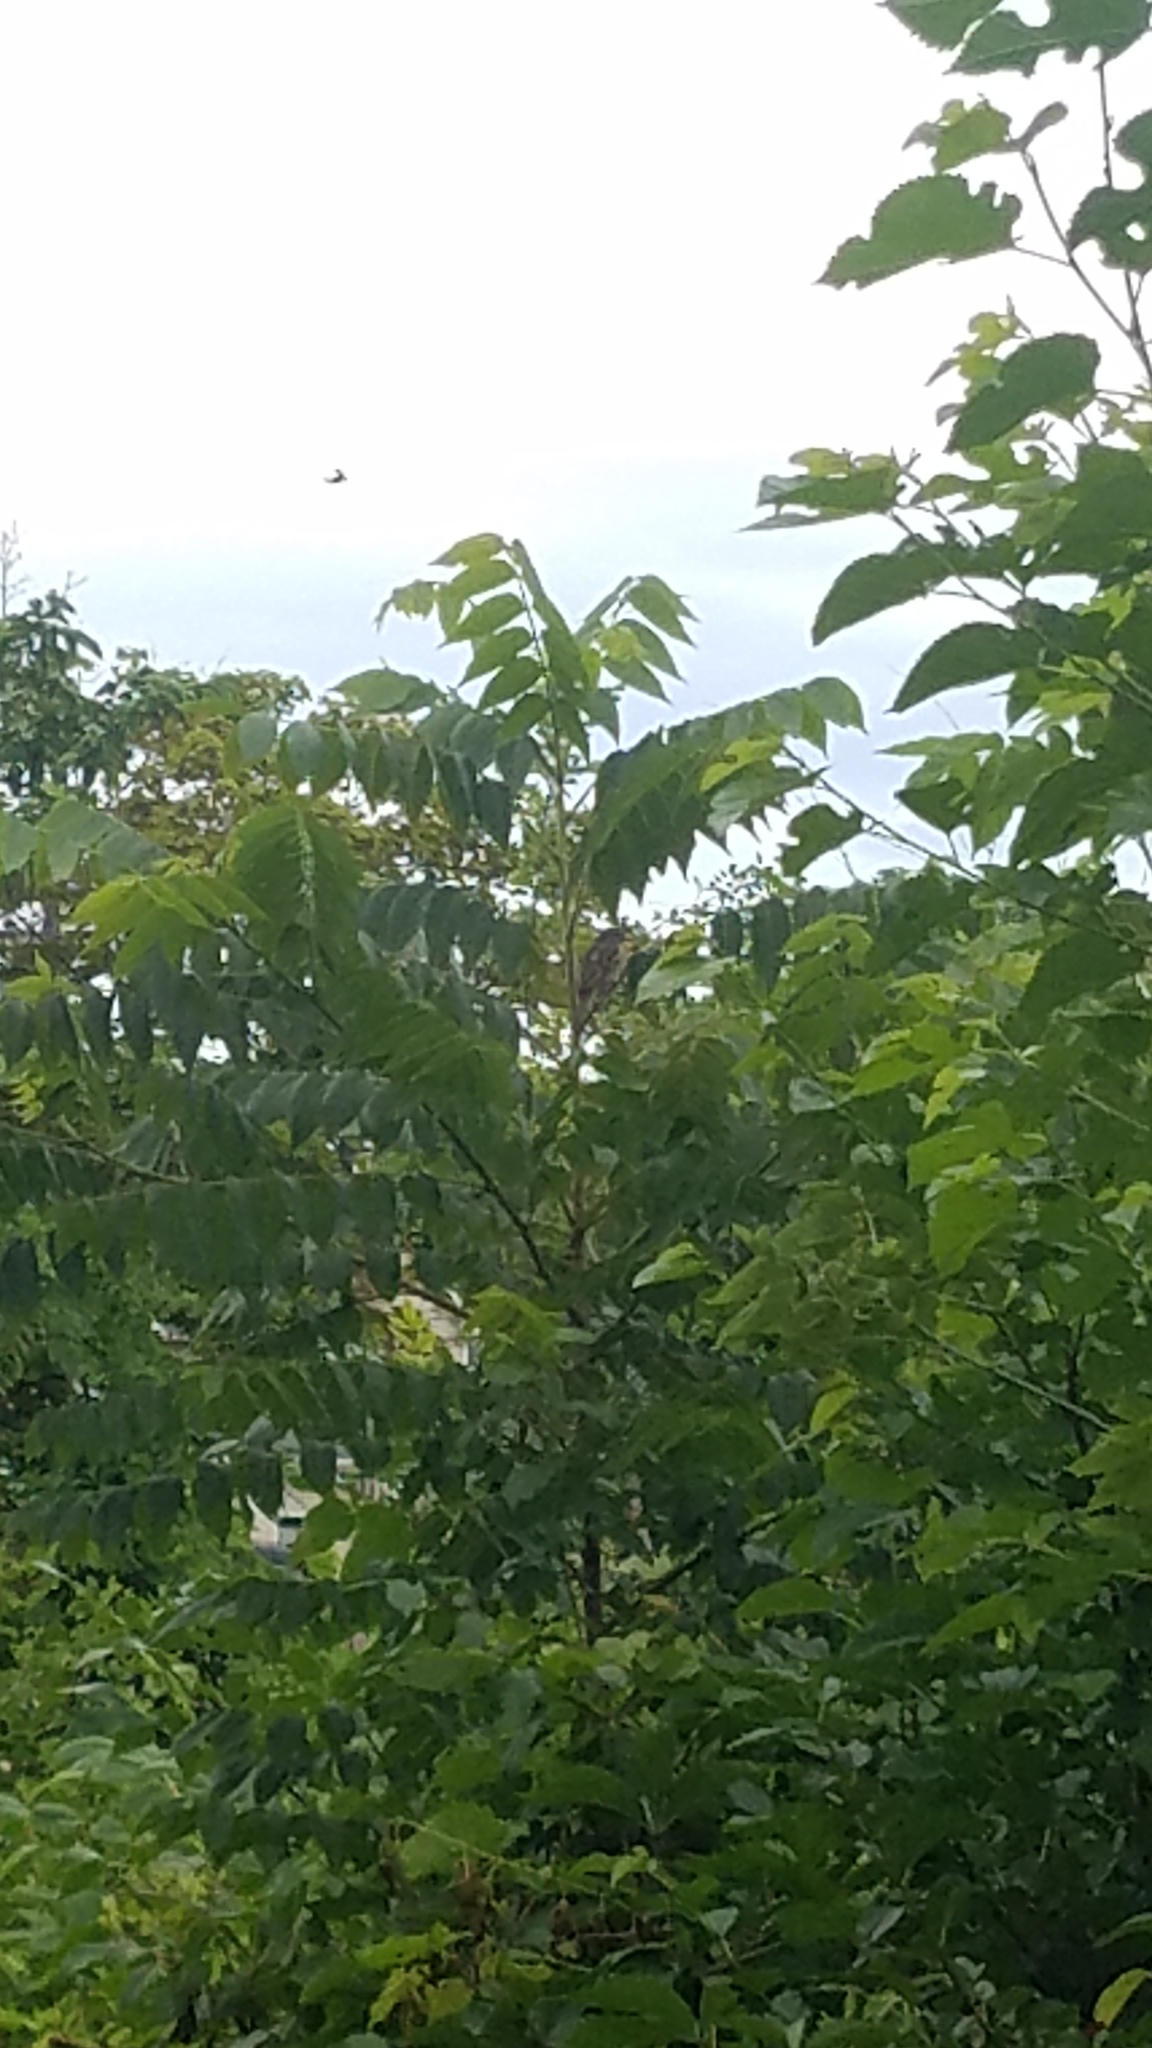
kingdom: Plantae
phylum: Tracheophyta
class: Magnoliopsida
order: Fagales
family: Juglandaceae
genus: Juglans
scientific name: Juglans nigra
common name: Black walnut
